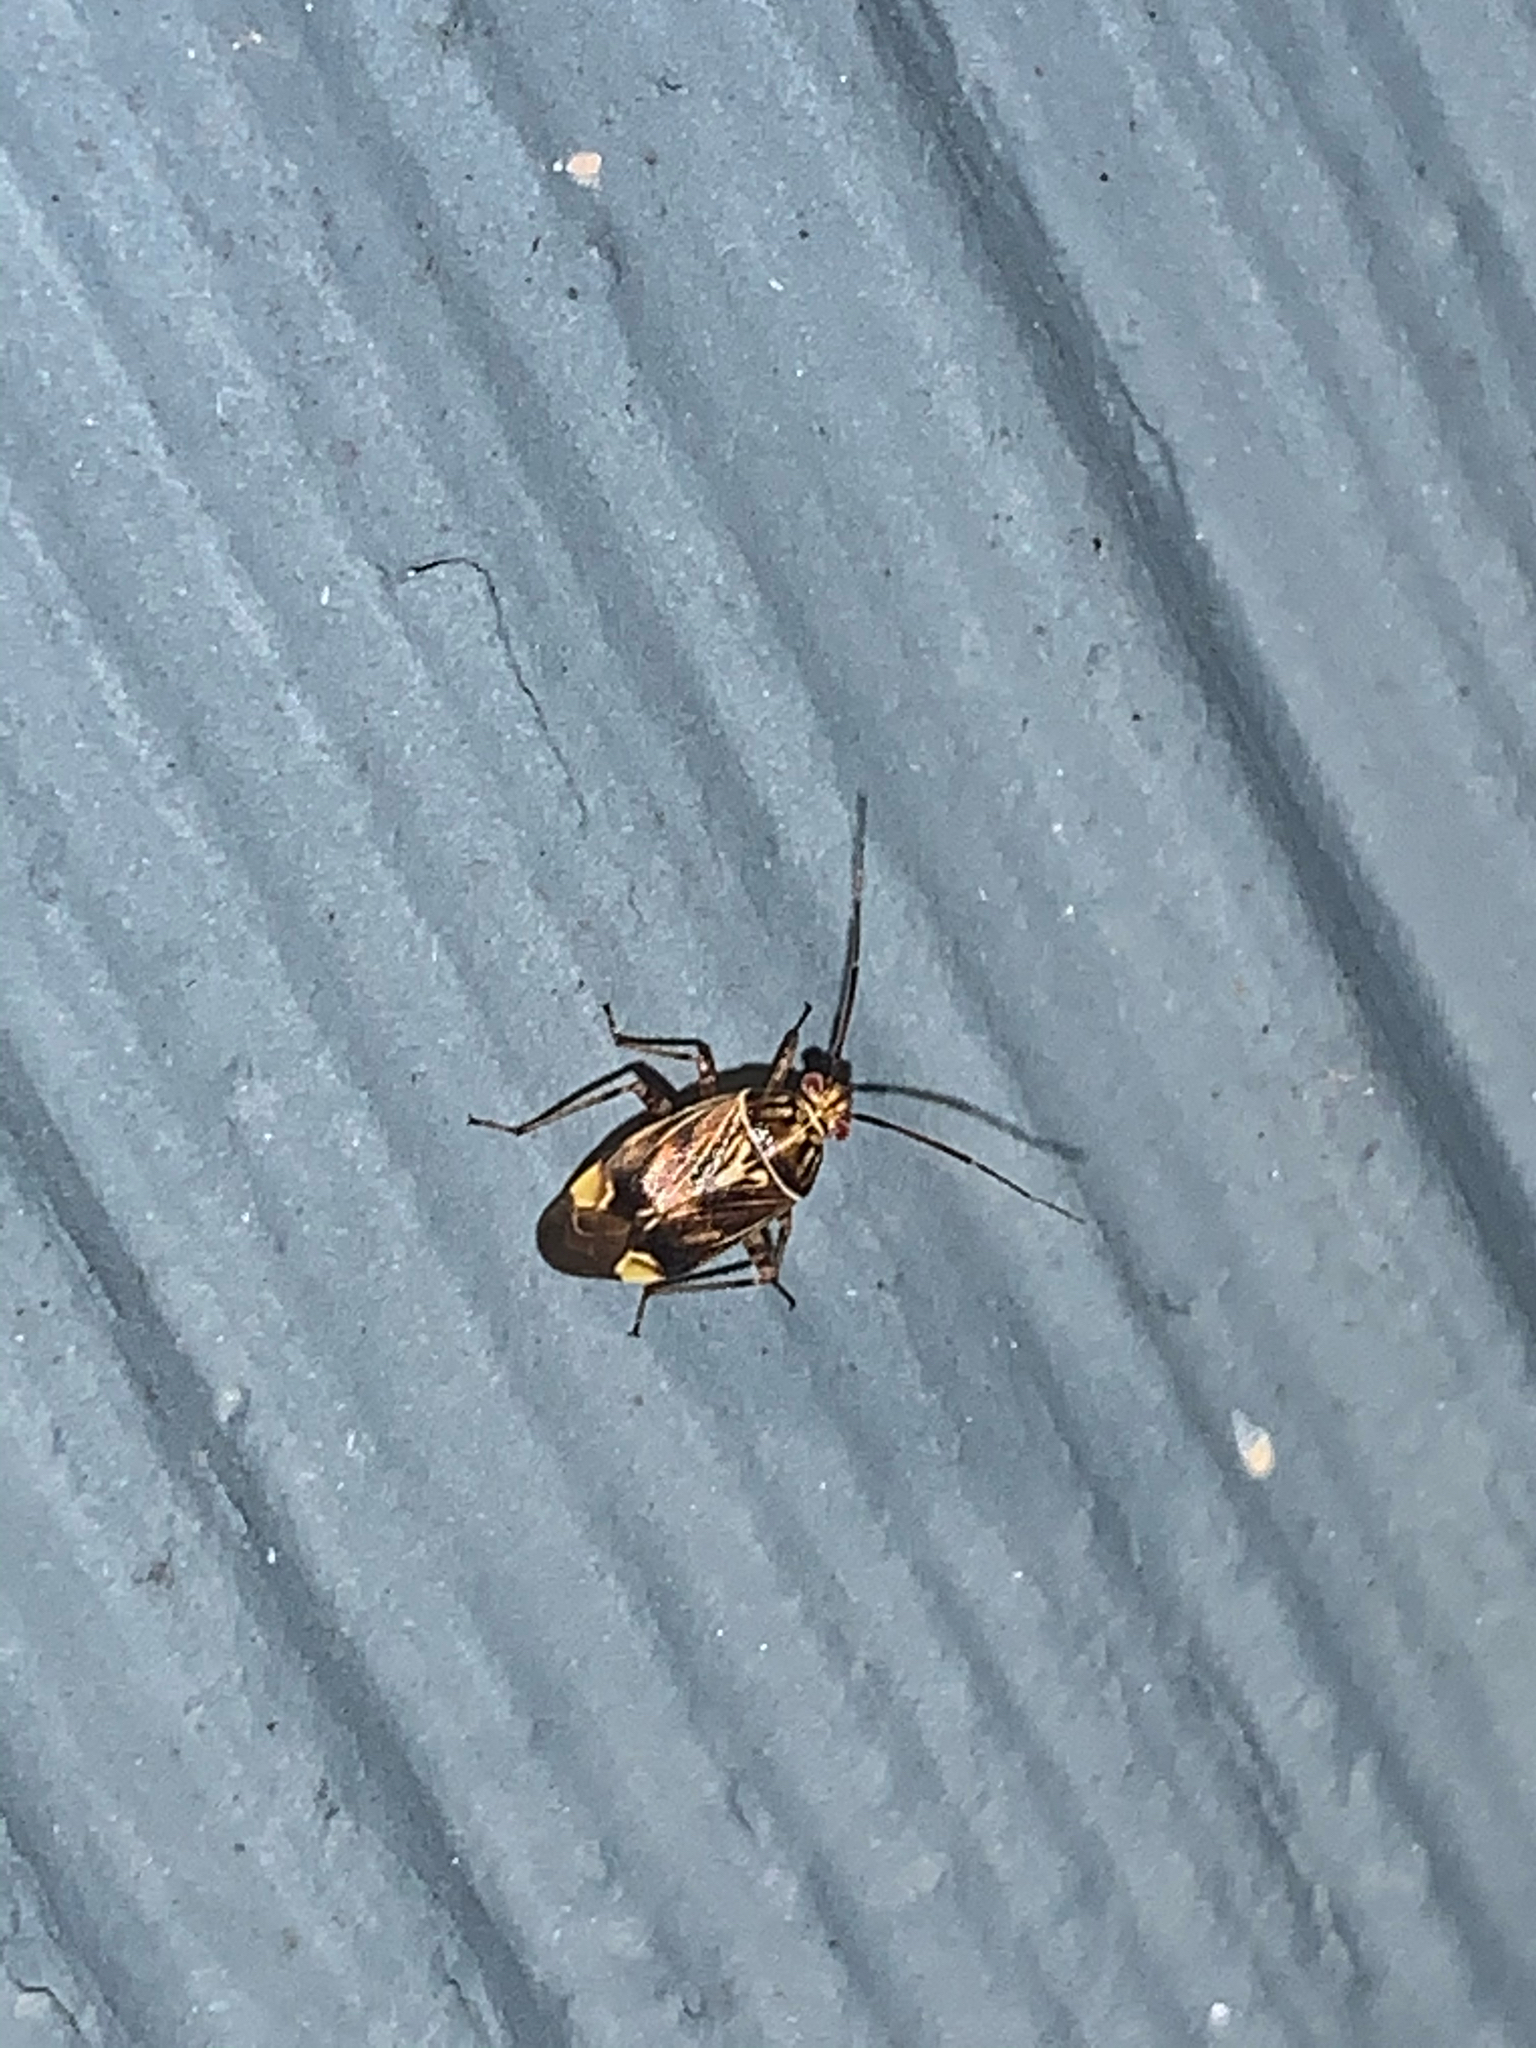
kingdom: Animalia
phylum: Arthropoda
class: Insecta
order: Hemiptera
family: Miridae
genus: Lygus
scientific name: Lygus lineolaris
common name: North american tarnished plant bug
